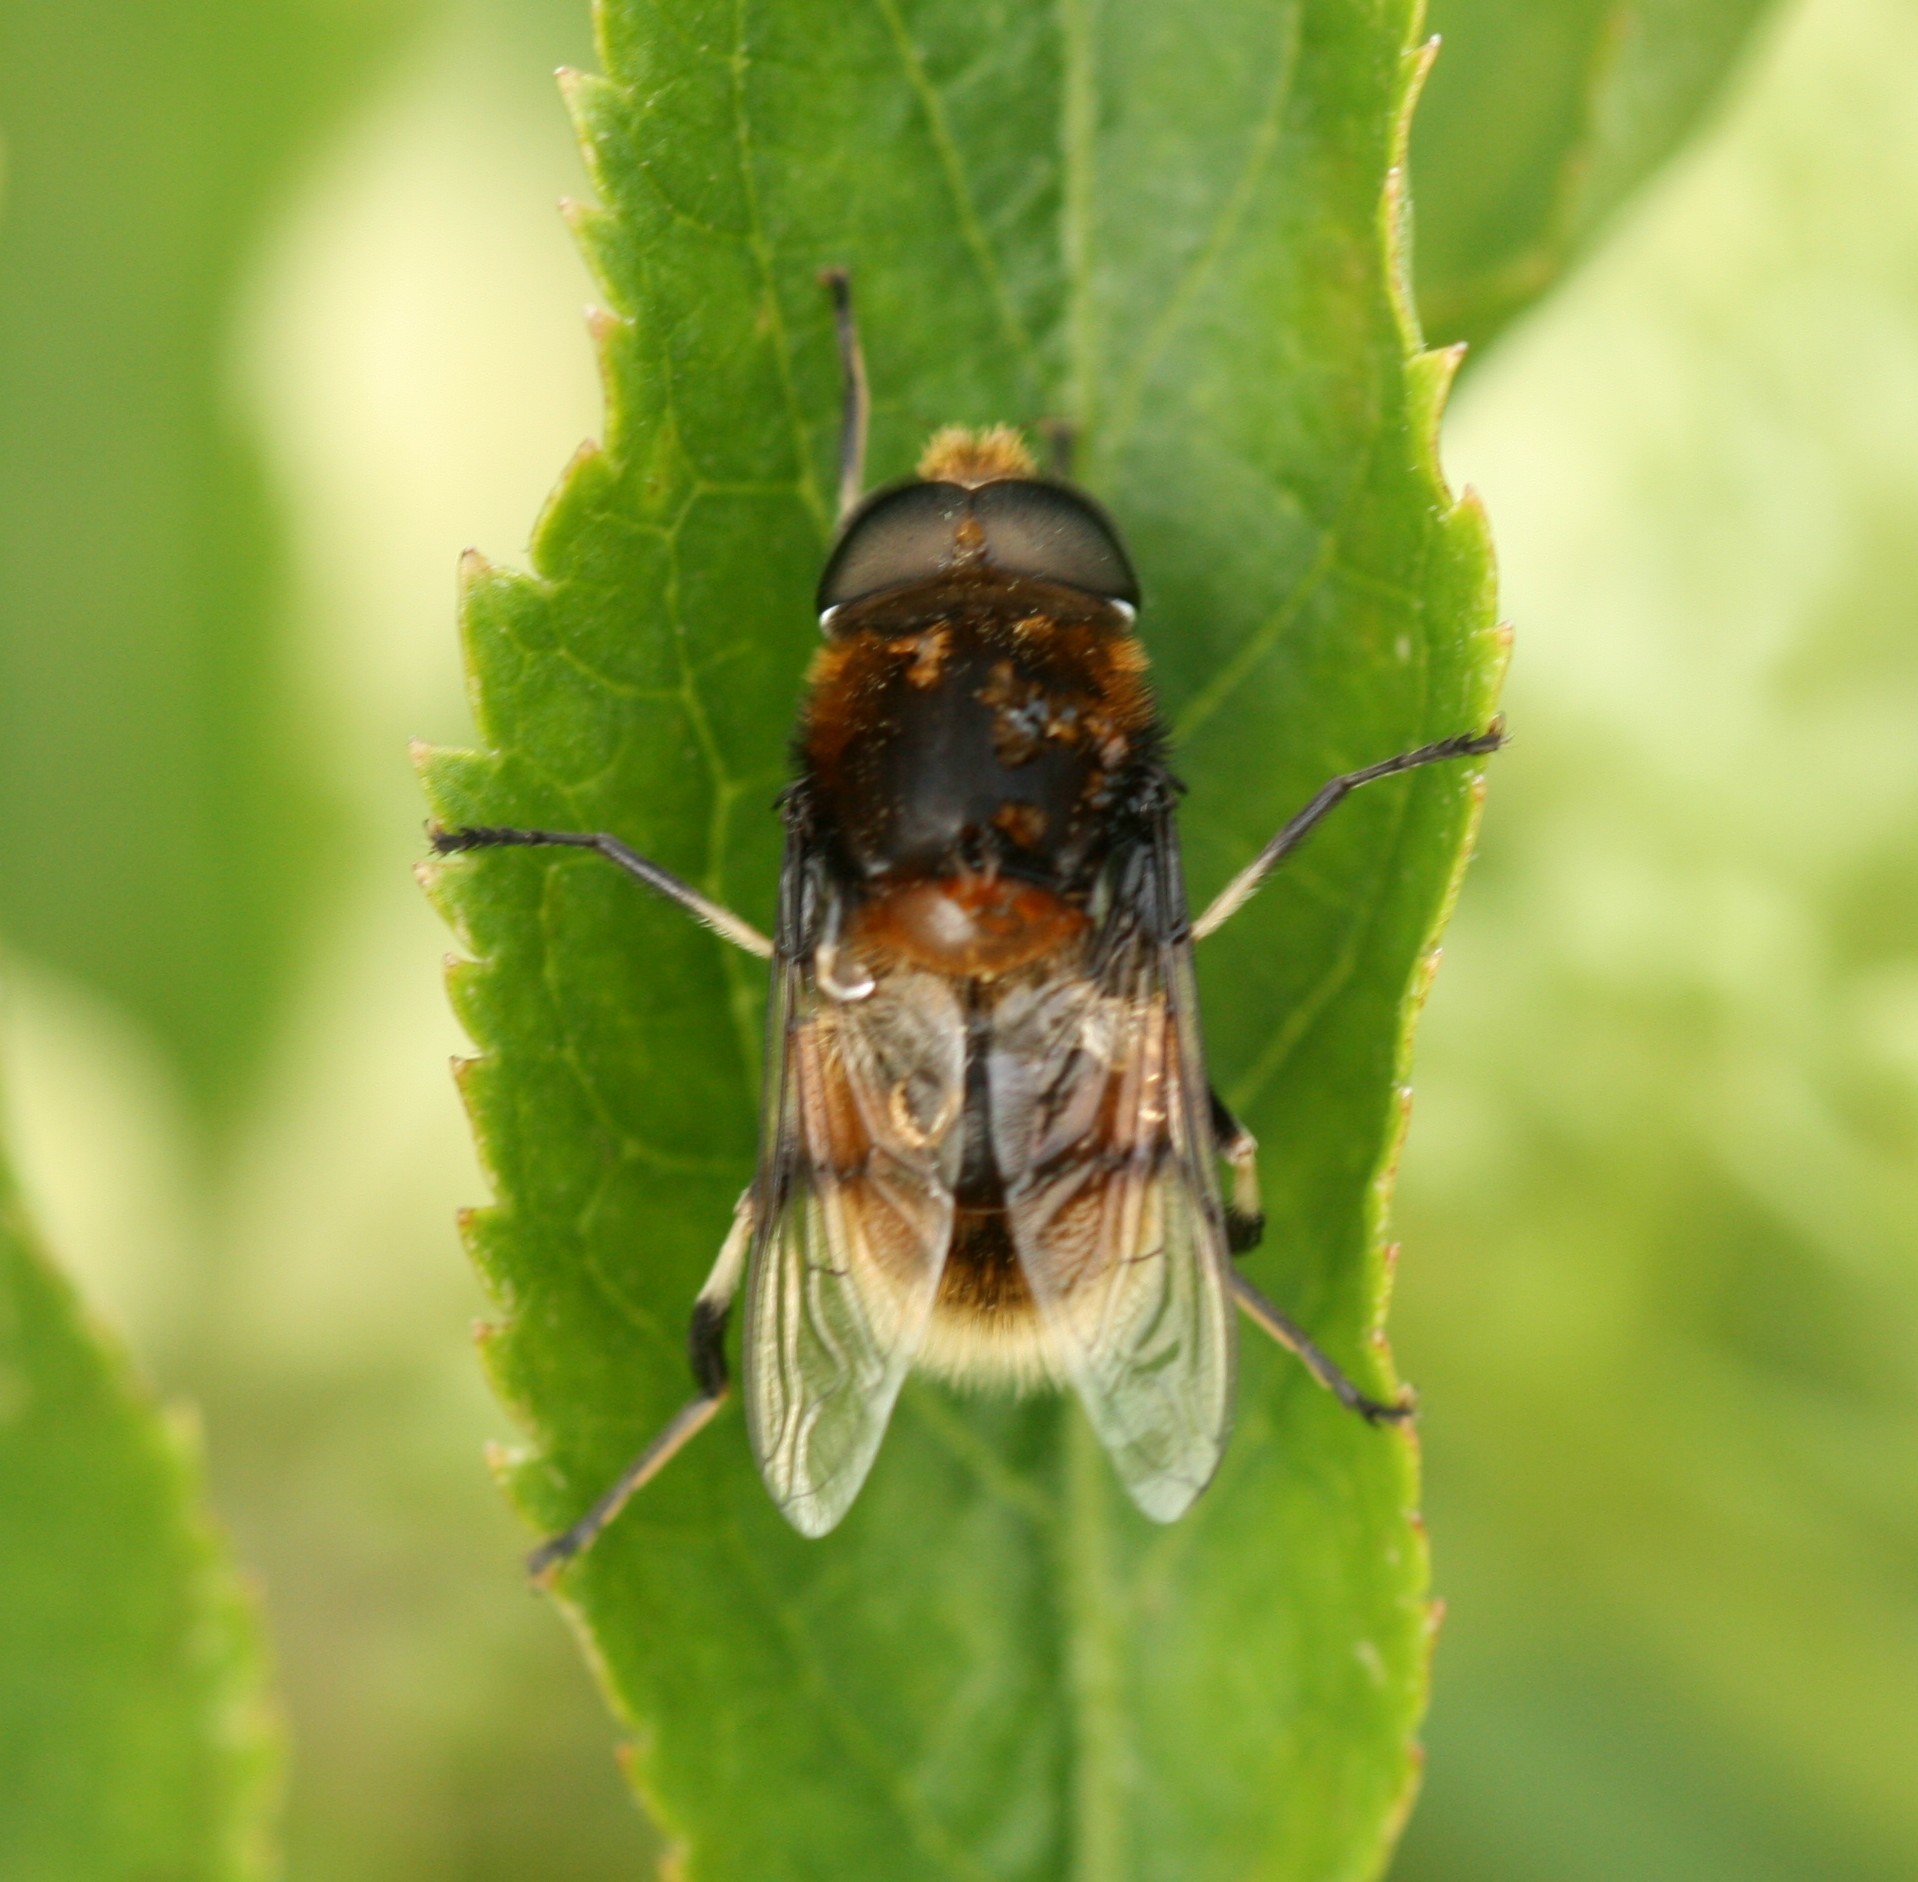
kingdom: Animalia
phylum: Arthropoda
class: Insecta
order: Diptera
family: Syrphidae
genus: Eristalis
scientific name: Eristalis intricaria
